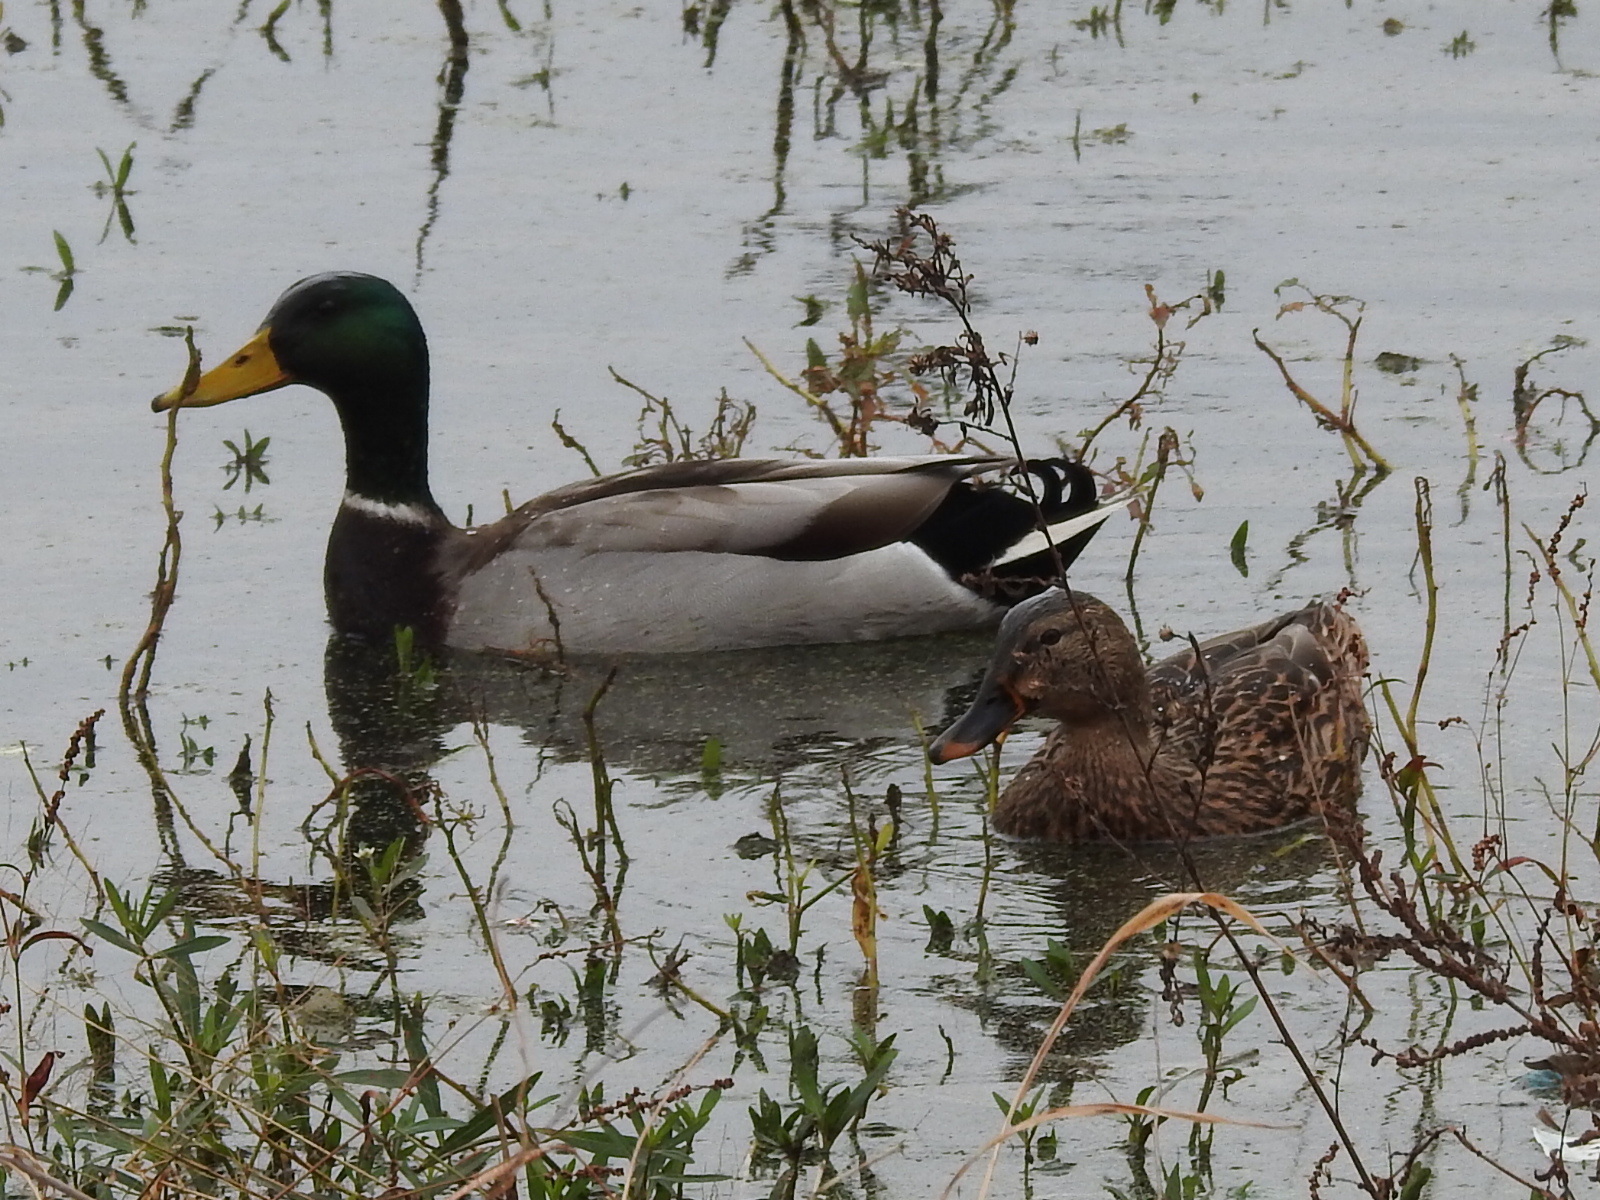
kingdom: Animalia
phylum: Chordata
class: Aves
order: Anseriformes
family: Anatidae
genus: Anas
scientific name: Anas platyrhynchos
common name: Mallard
